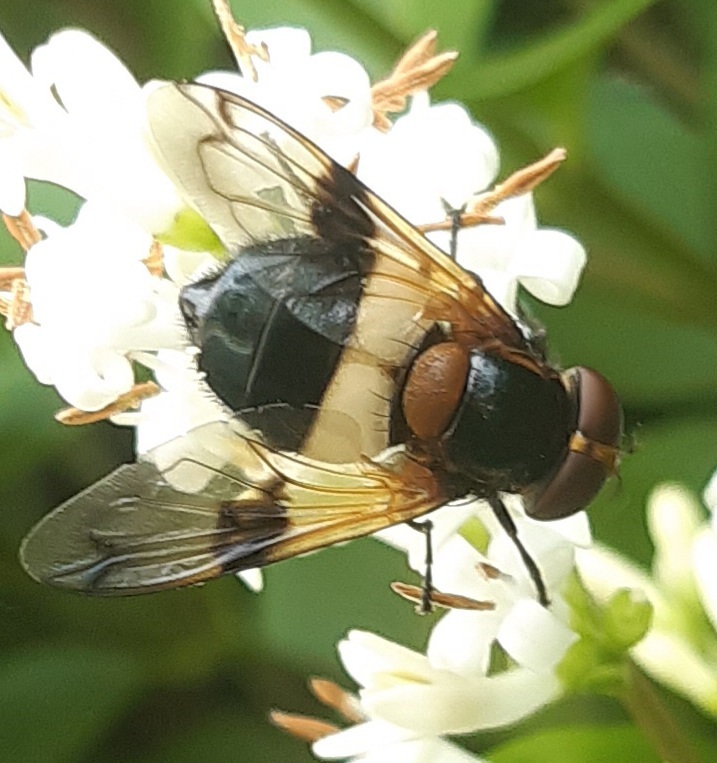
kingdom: Animalia
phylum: Arthropoda
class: Insecta
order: Diptera
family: Syrphidae
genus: Volucella
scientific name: Volucella pellucens
